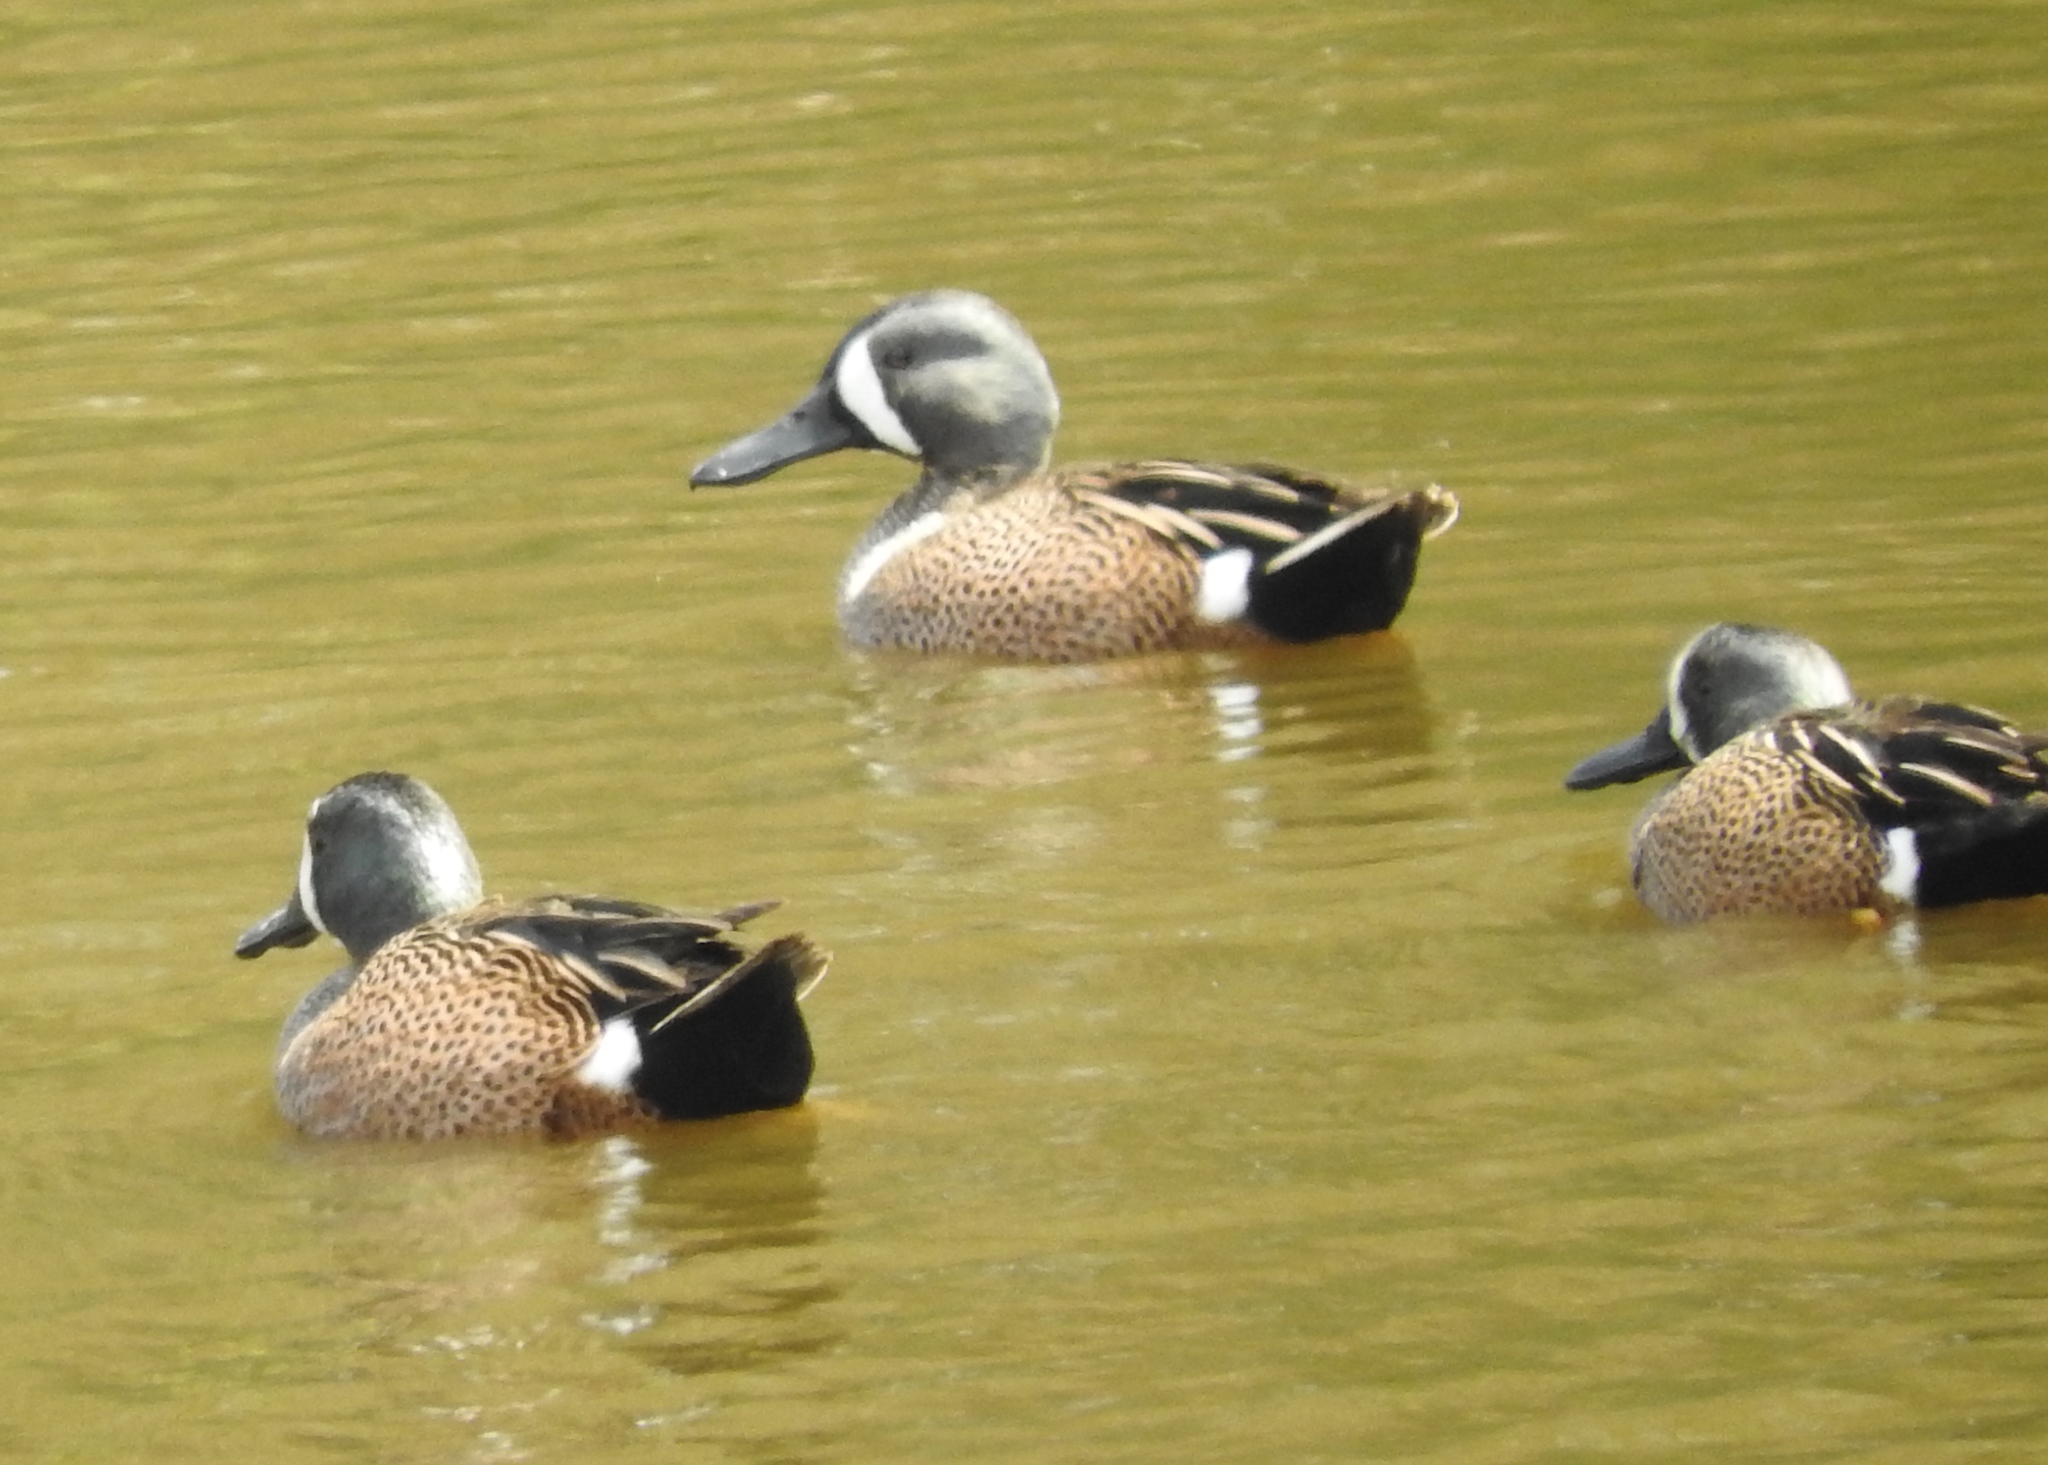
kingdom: Animalia
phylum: Chordata
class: Aves
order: Anseriformes
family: Anatidae
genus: Spatula
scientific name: Spatula discors
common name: Blue-winged teal
